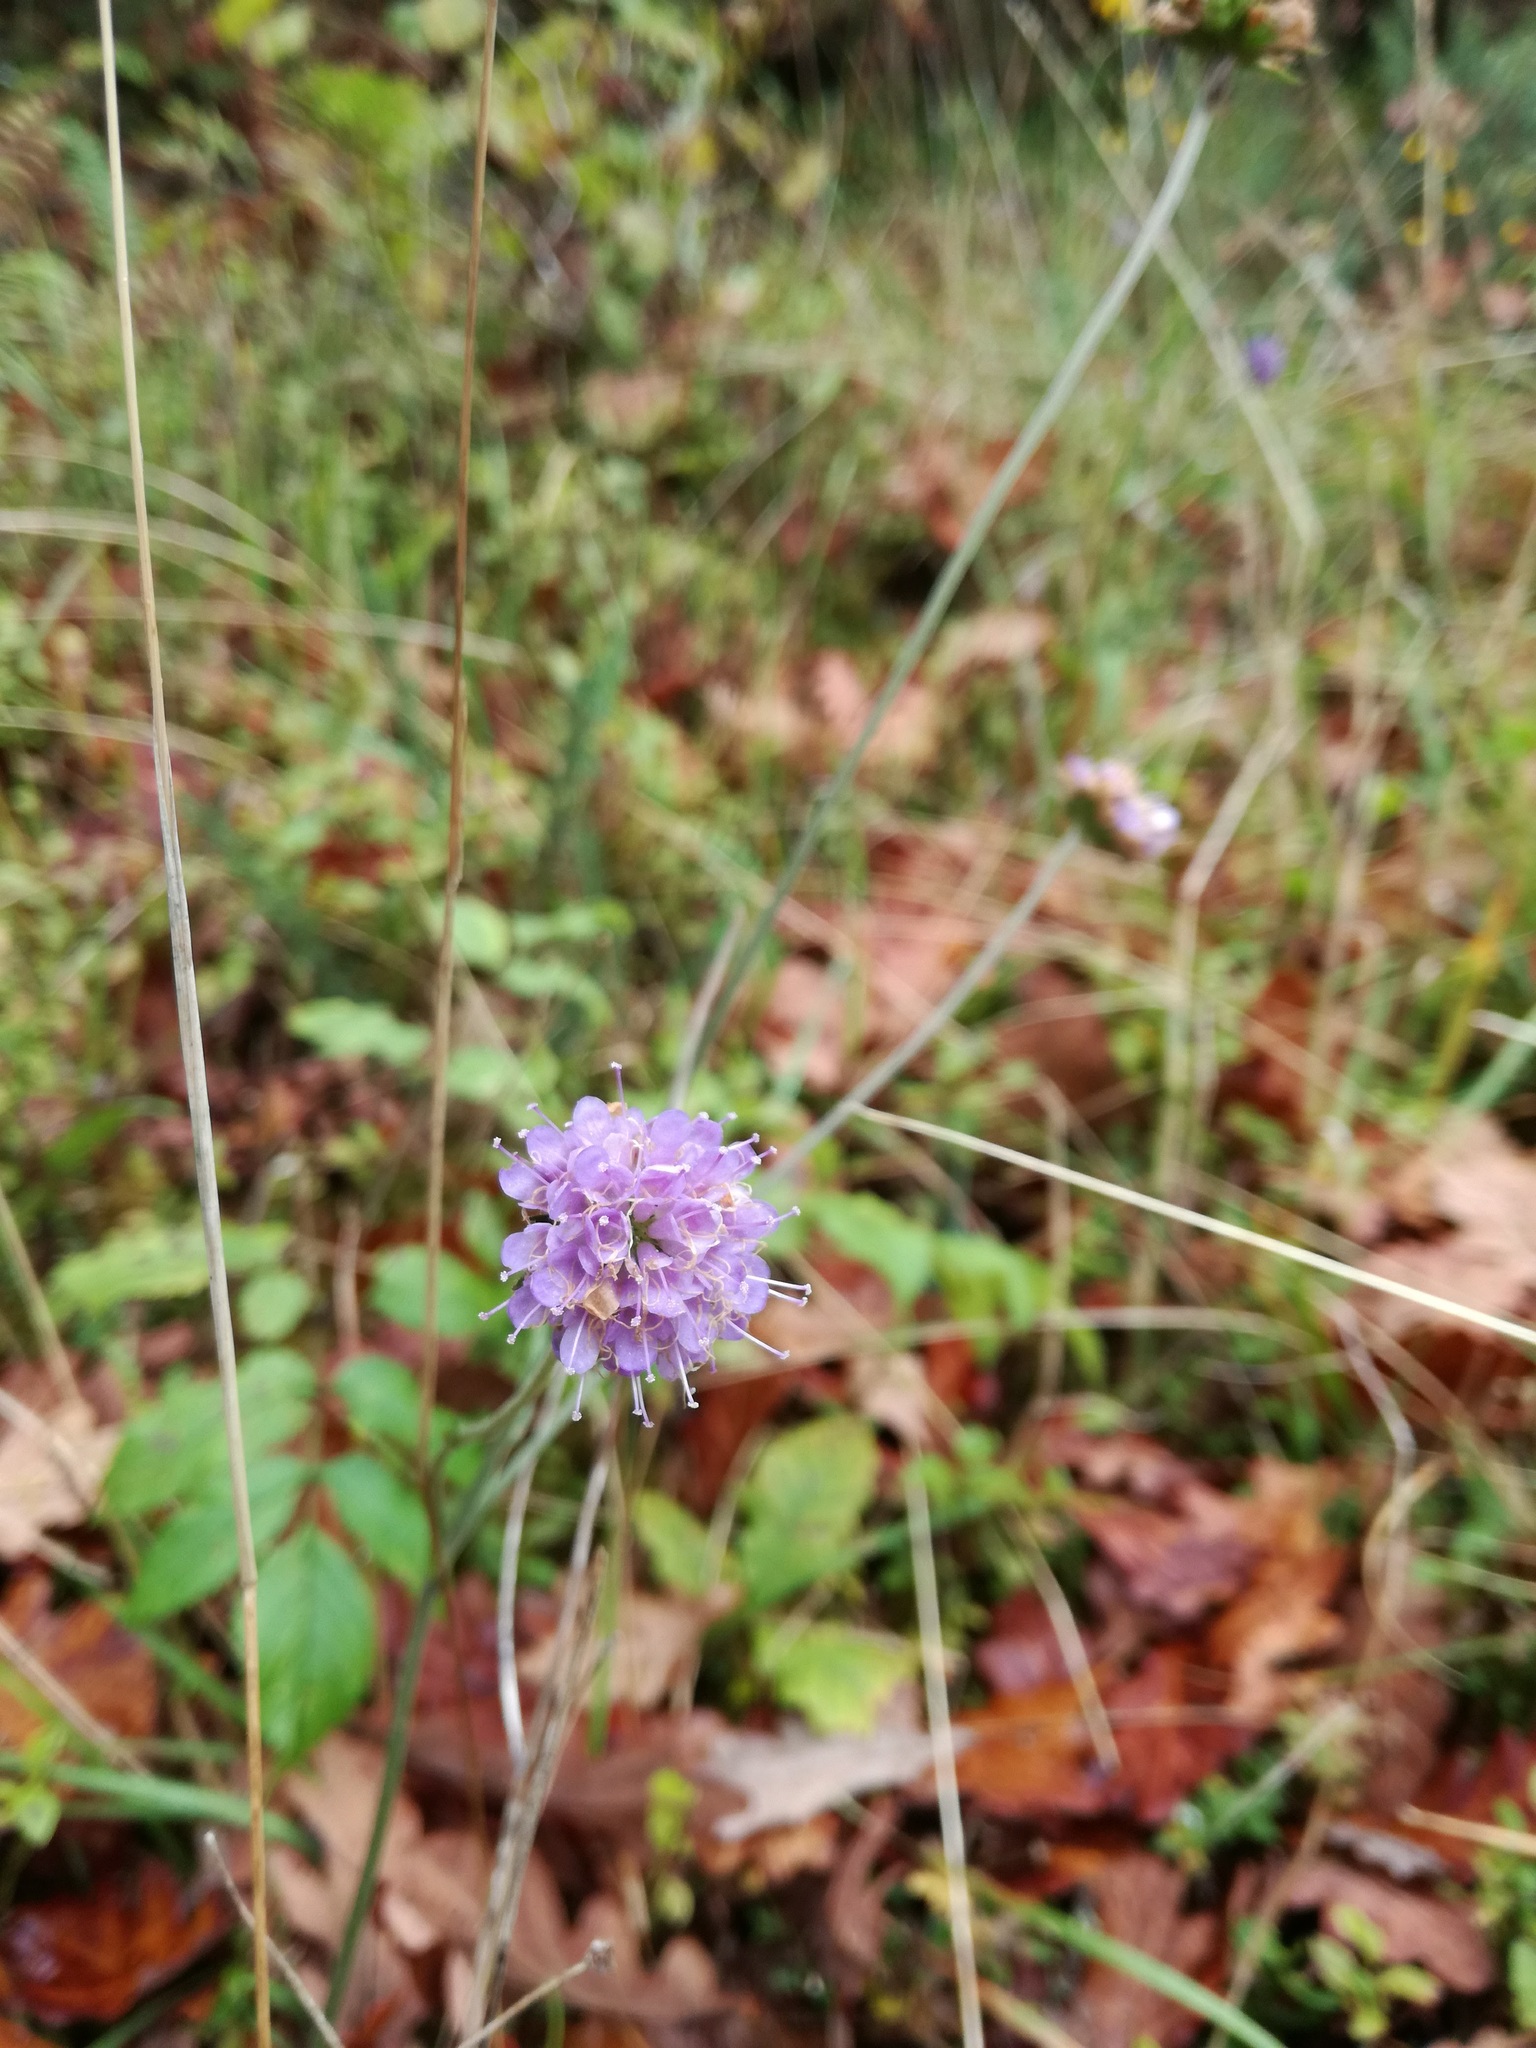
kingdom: Plantae
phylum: Tracheophyta
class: Magnoliopsida
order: Dipsacales
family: Caprifoliaceae
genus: Succisa
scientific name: Succisa pratensis
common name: Devil's-bit
